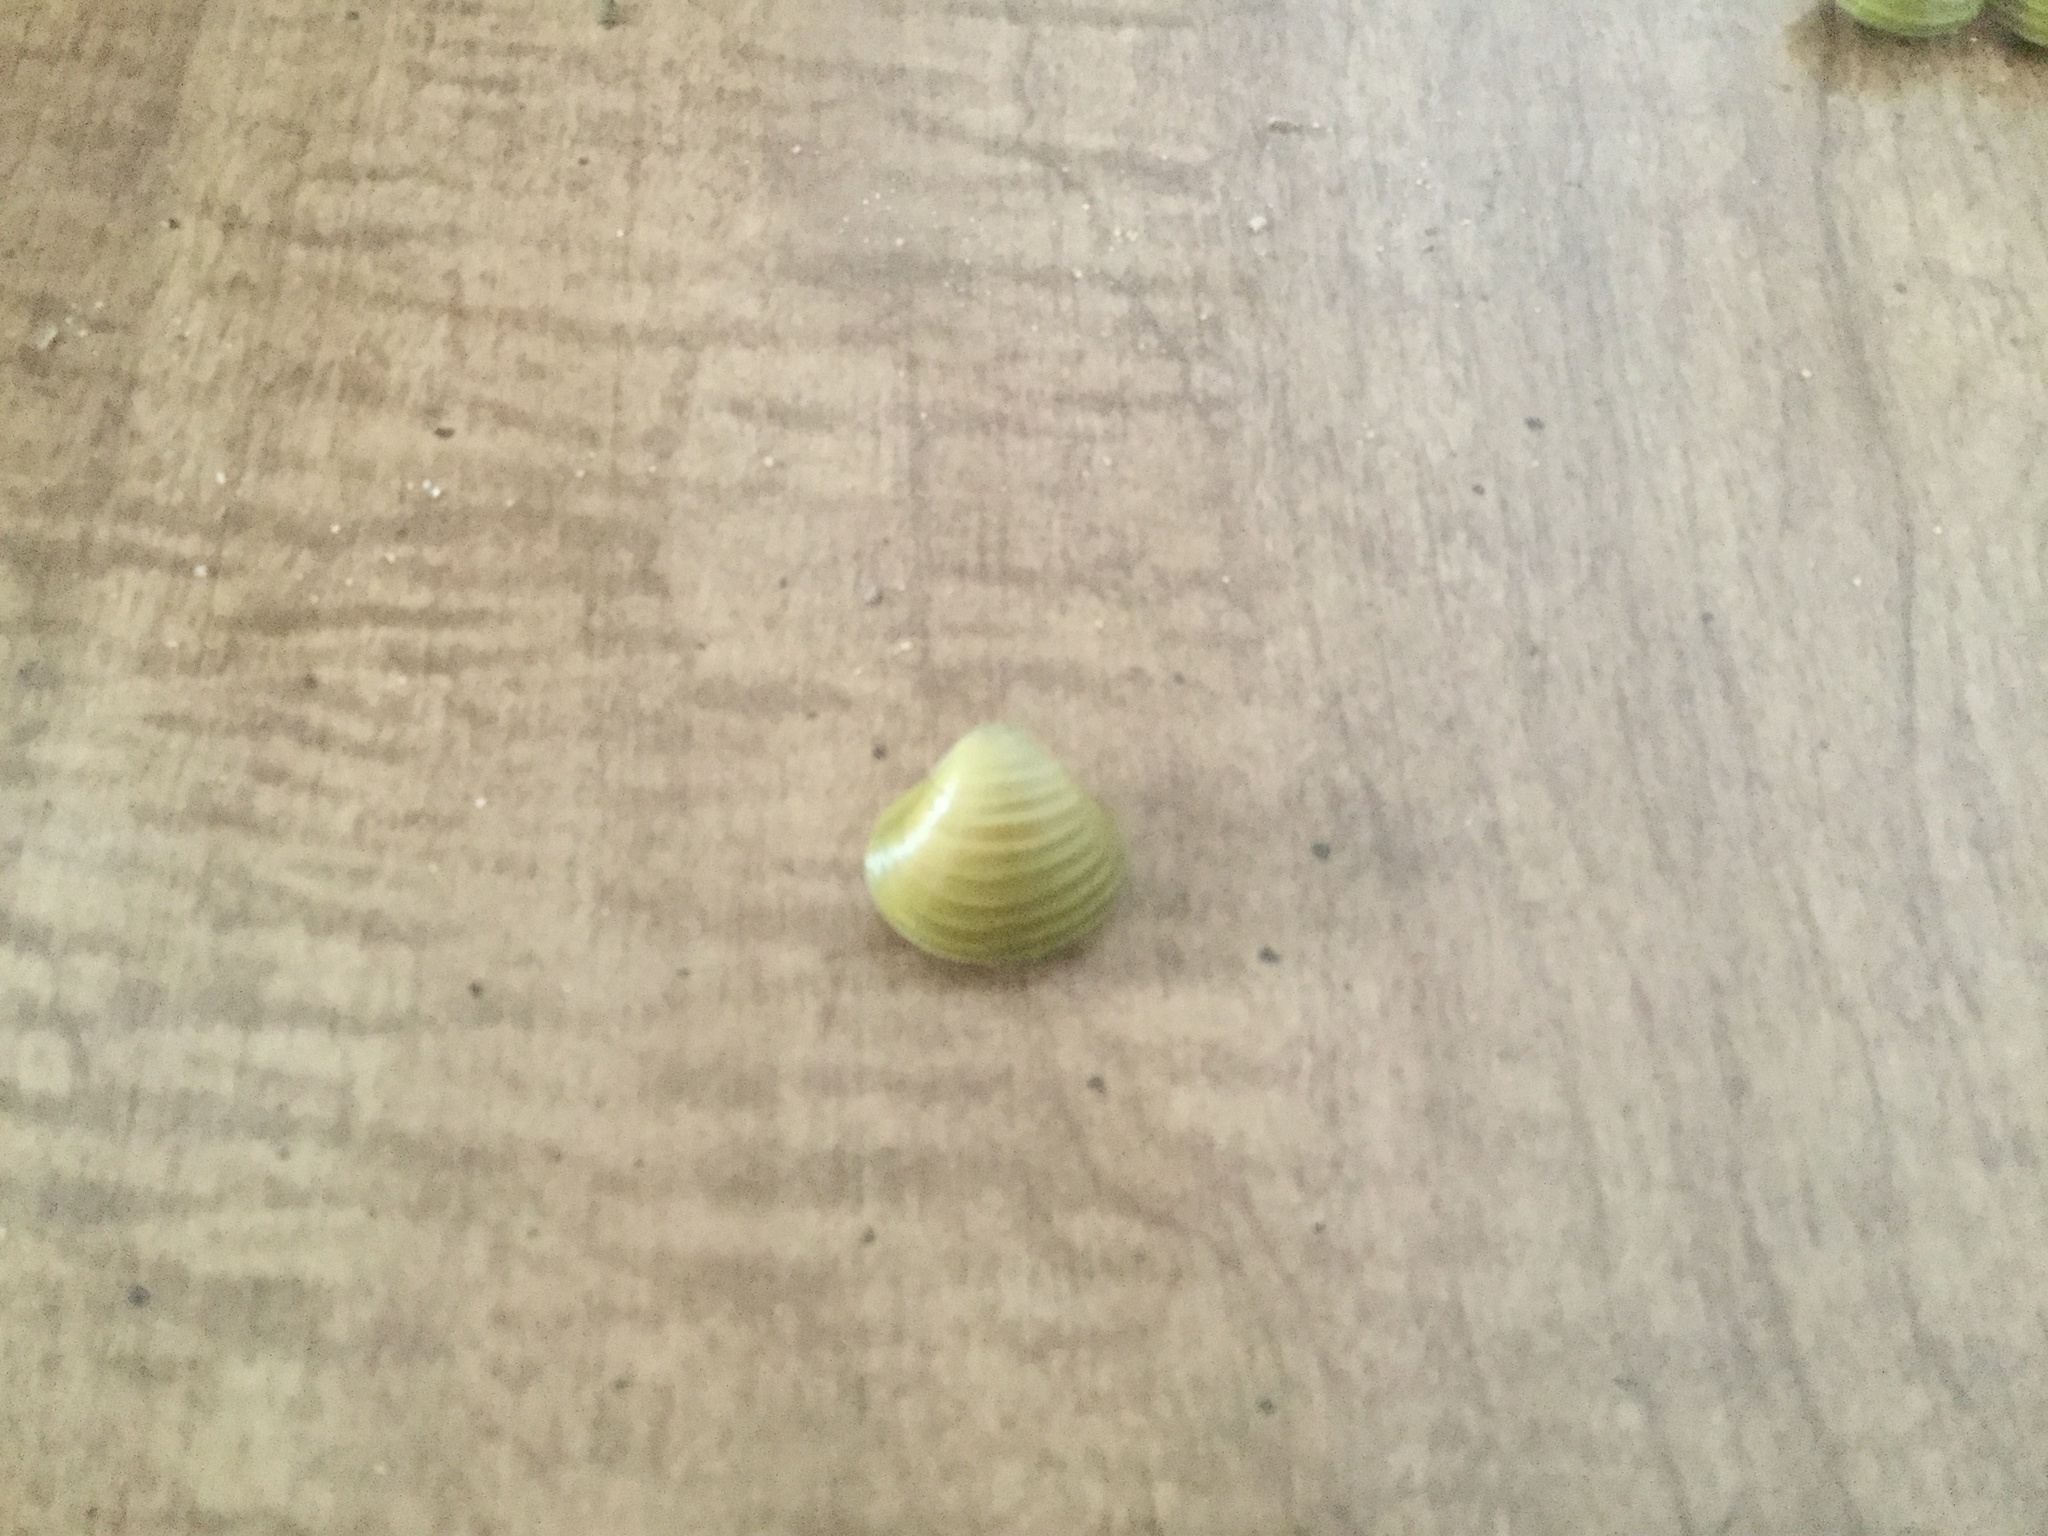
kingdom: Animalia
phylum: Mollusca
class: Bivalvia
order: Venerida
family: Cyrenidae
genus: Corbicula
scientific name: Corbicula fluminea
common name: Asian clam
